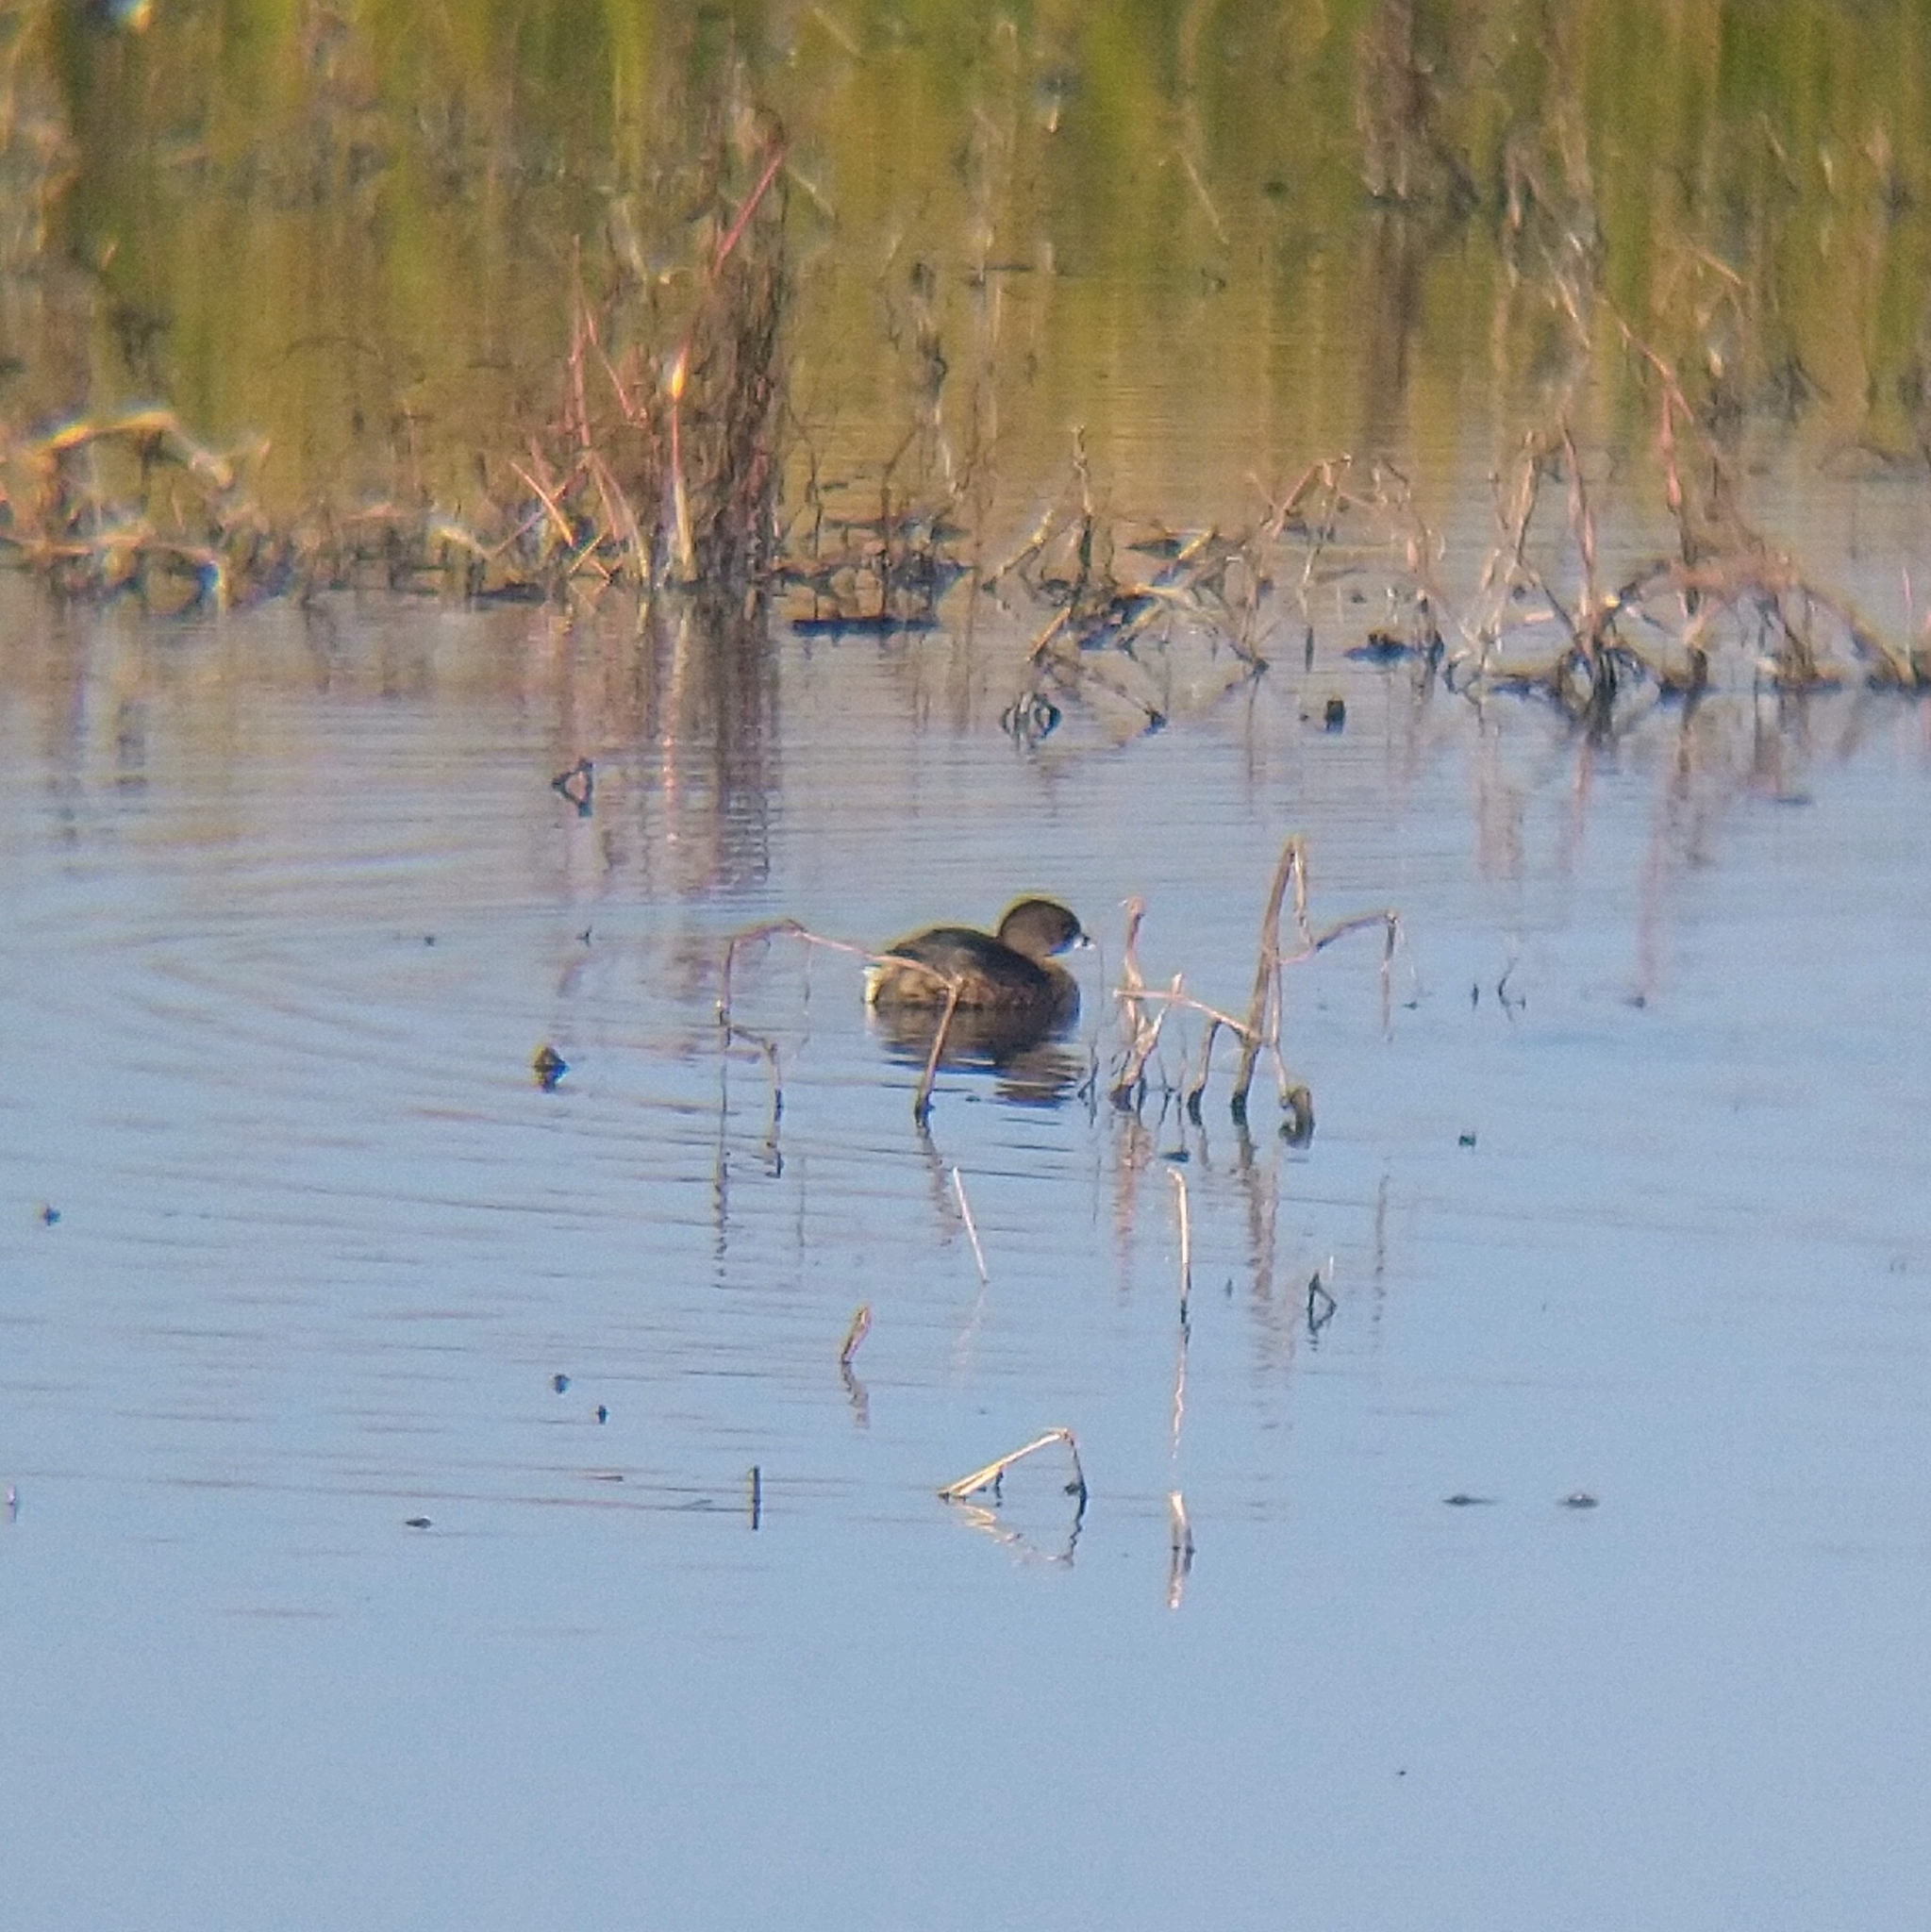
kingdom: Animalia
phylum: Chordata
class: Aves
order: Podicipediformes
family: Podicipedidae
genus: Podilymbus
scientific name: Podilymbus podiceps
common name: Pied-billed grebe
